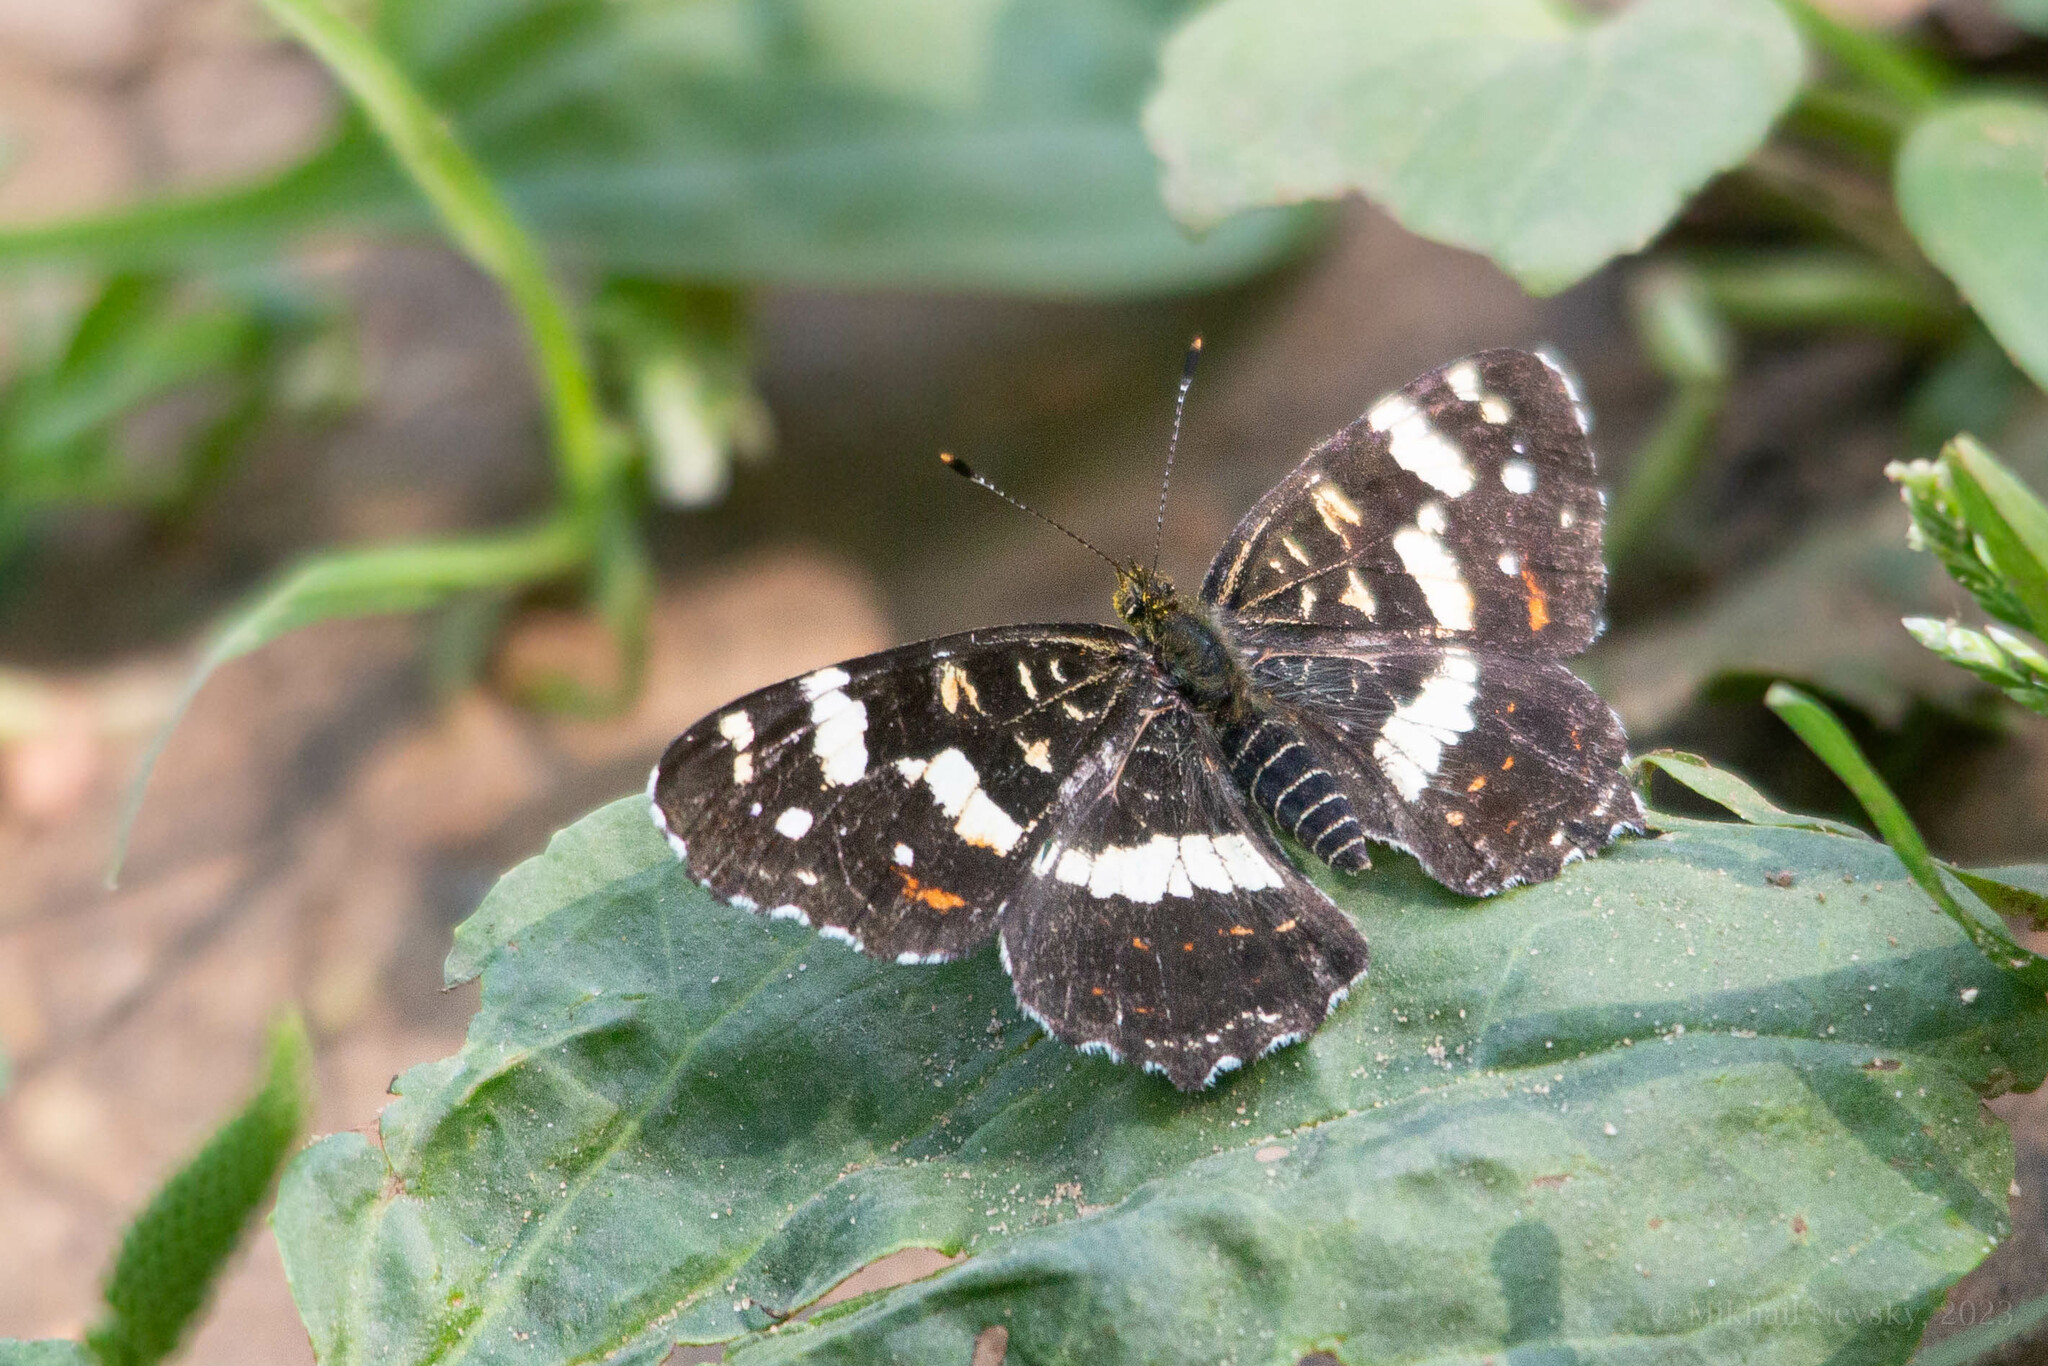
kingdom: Animalia
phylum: Arthropoda
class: Insecta
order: Lepidoptera
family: Nymphalidae
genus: Araschnia
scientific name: Araschnia levana
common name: Map butterfly
